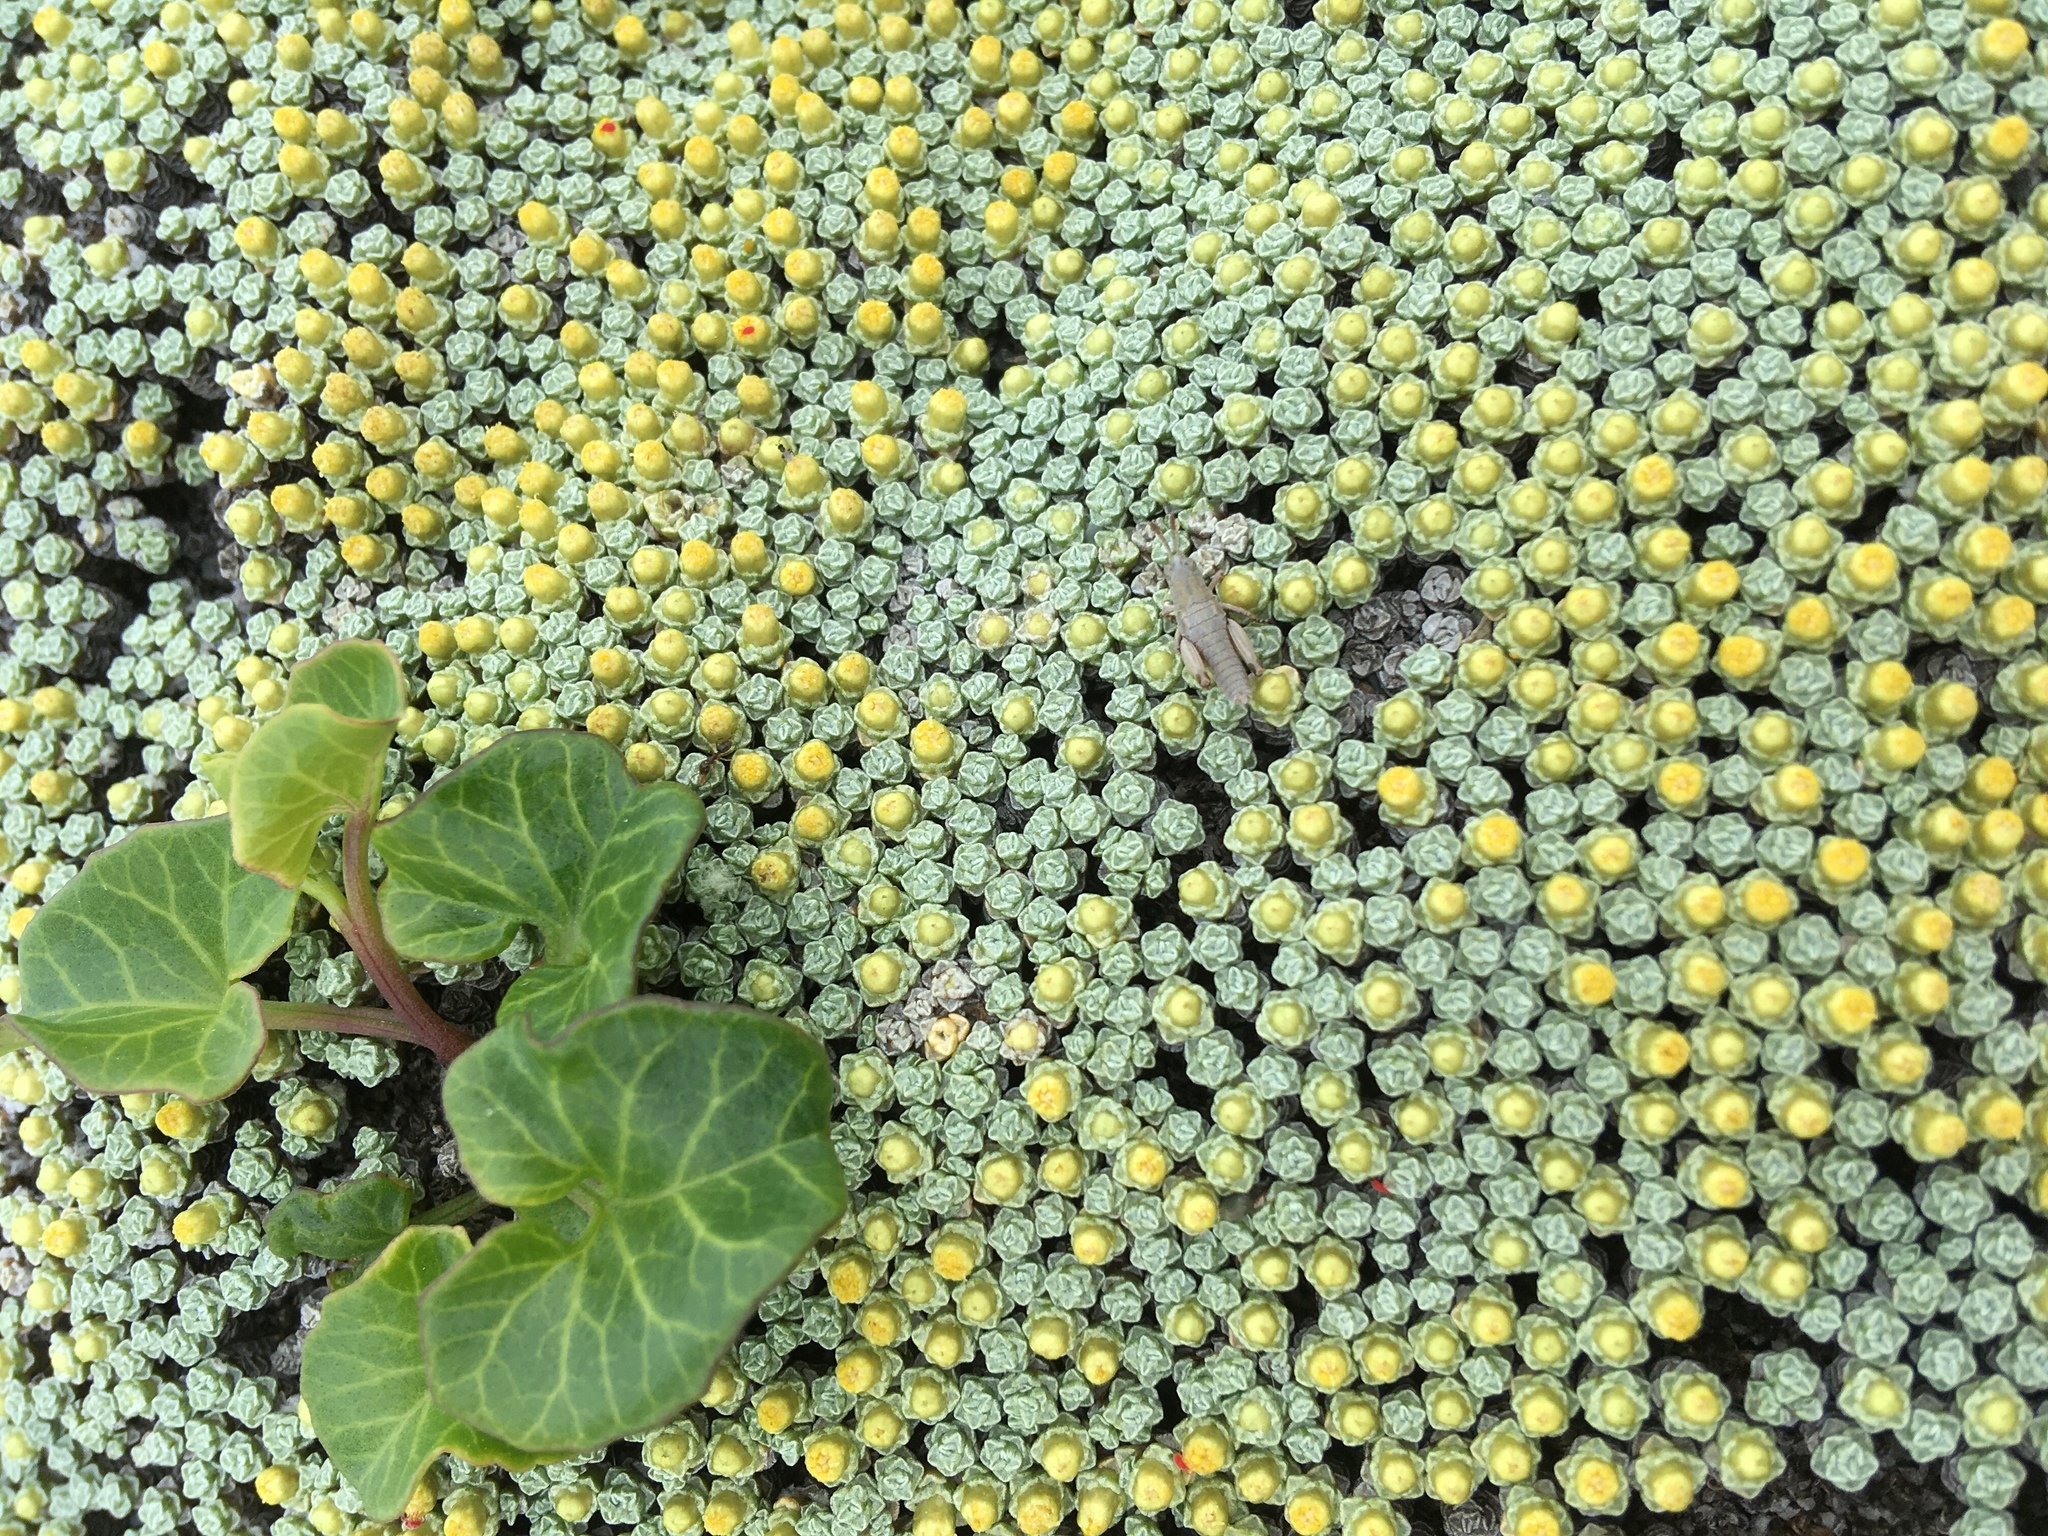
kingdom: Plantae
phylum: Tracheophyta
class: Magnoliopsida
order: Solanales
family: Convolvulaceae
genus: Calystegia
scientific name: Calystegia soldanella
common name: Sea bindweed
